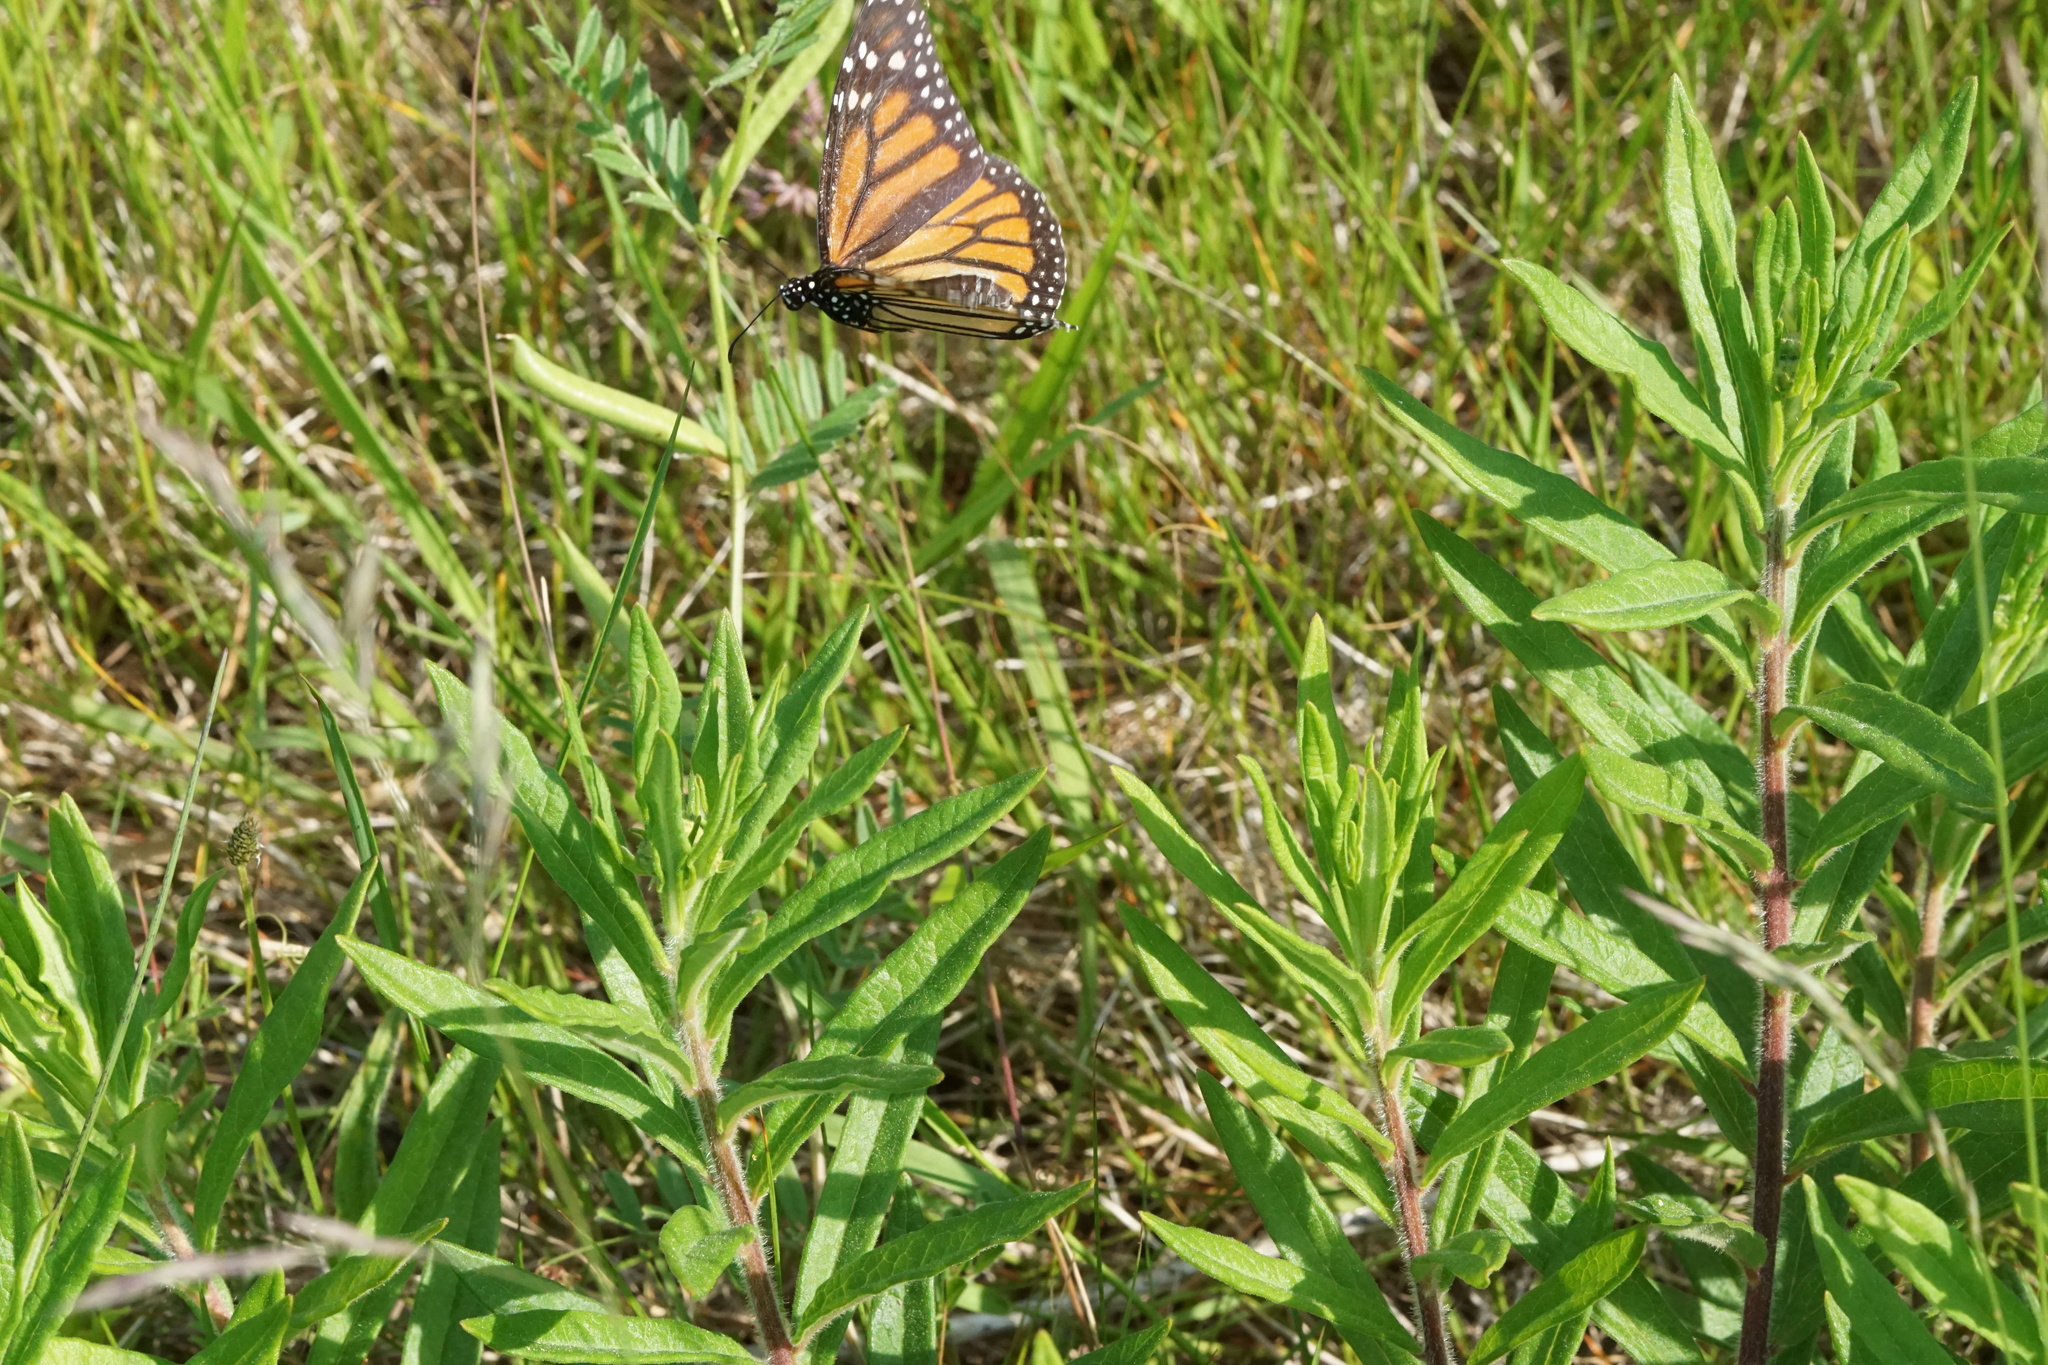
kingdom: Animalia
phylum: Arthropoda
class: Insecta
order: Lepidoptera
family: Nymphalidae
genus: Danaus
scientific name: Danaus plexippus
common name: Monarch
